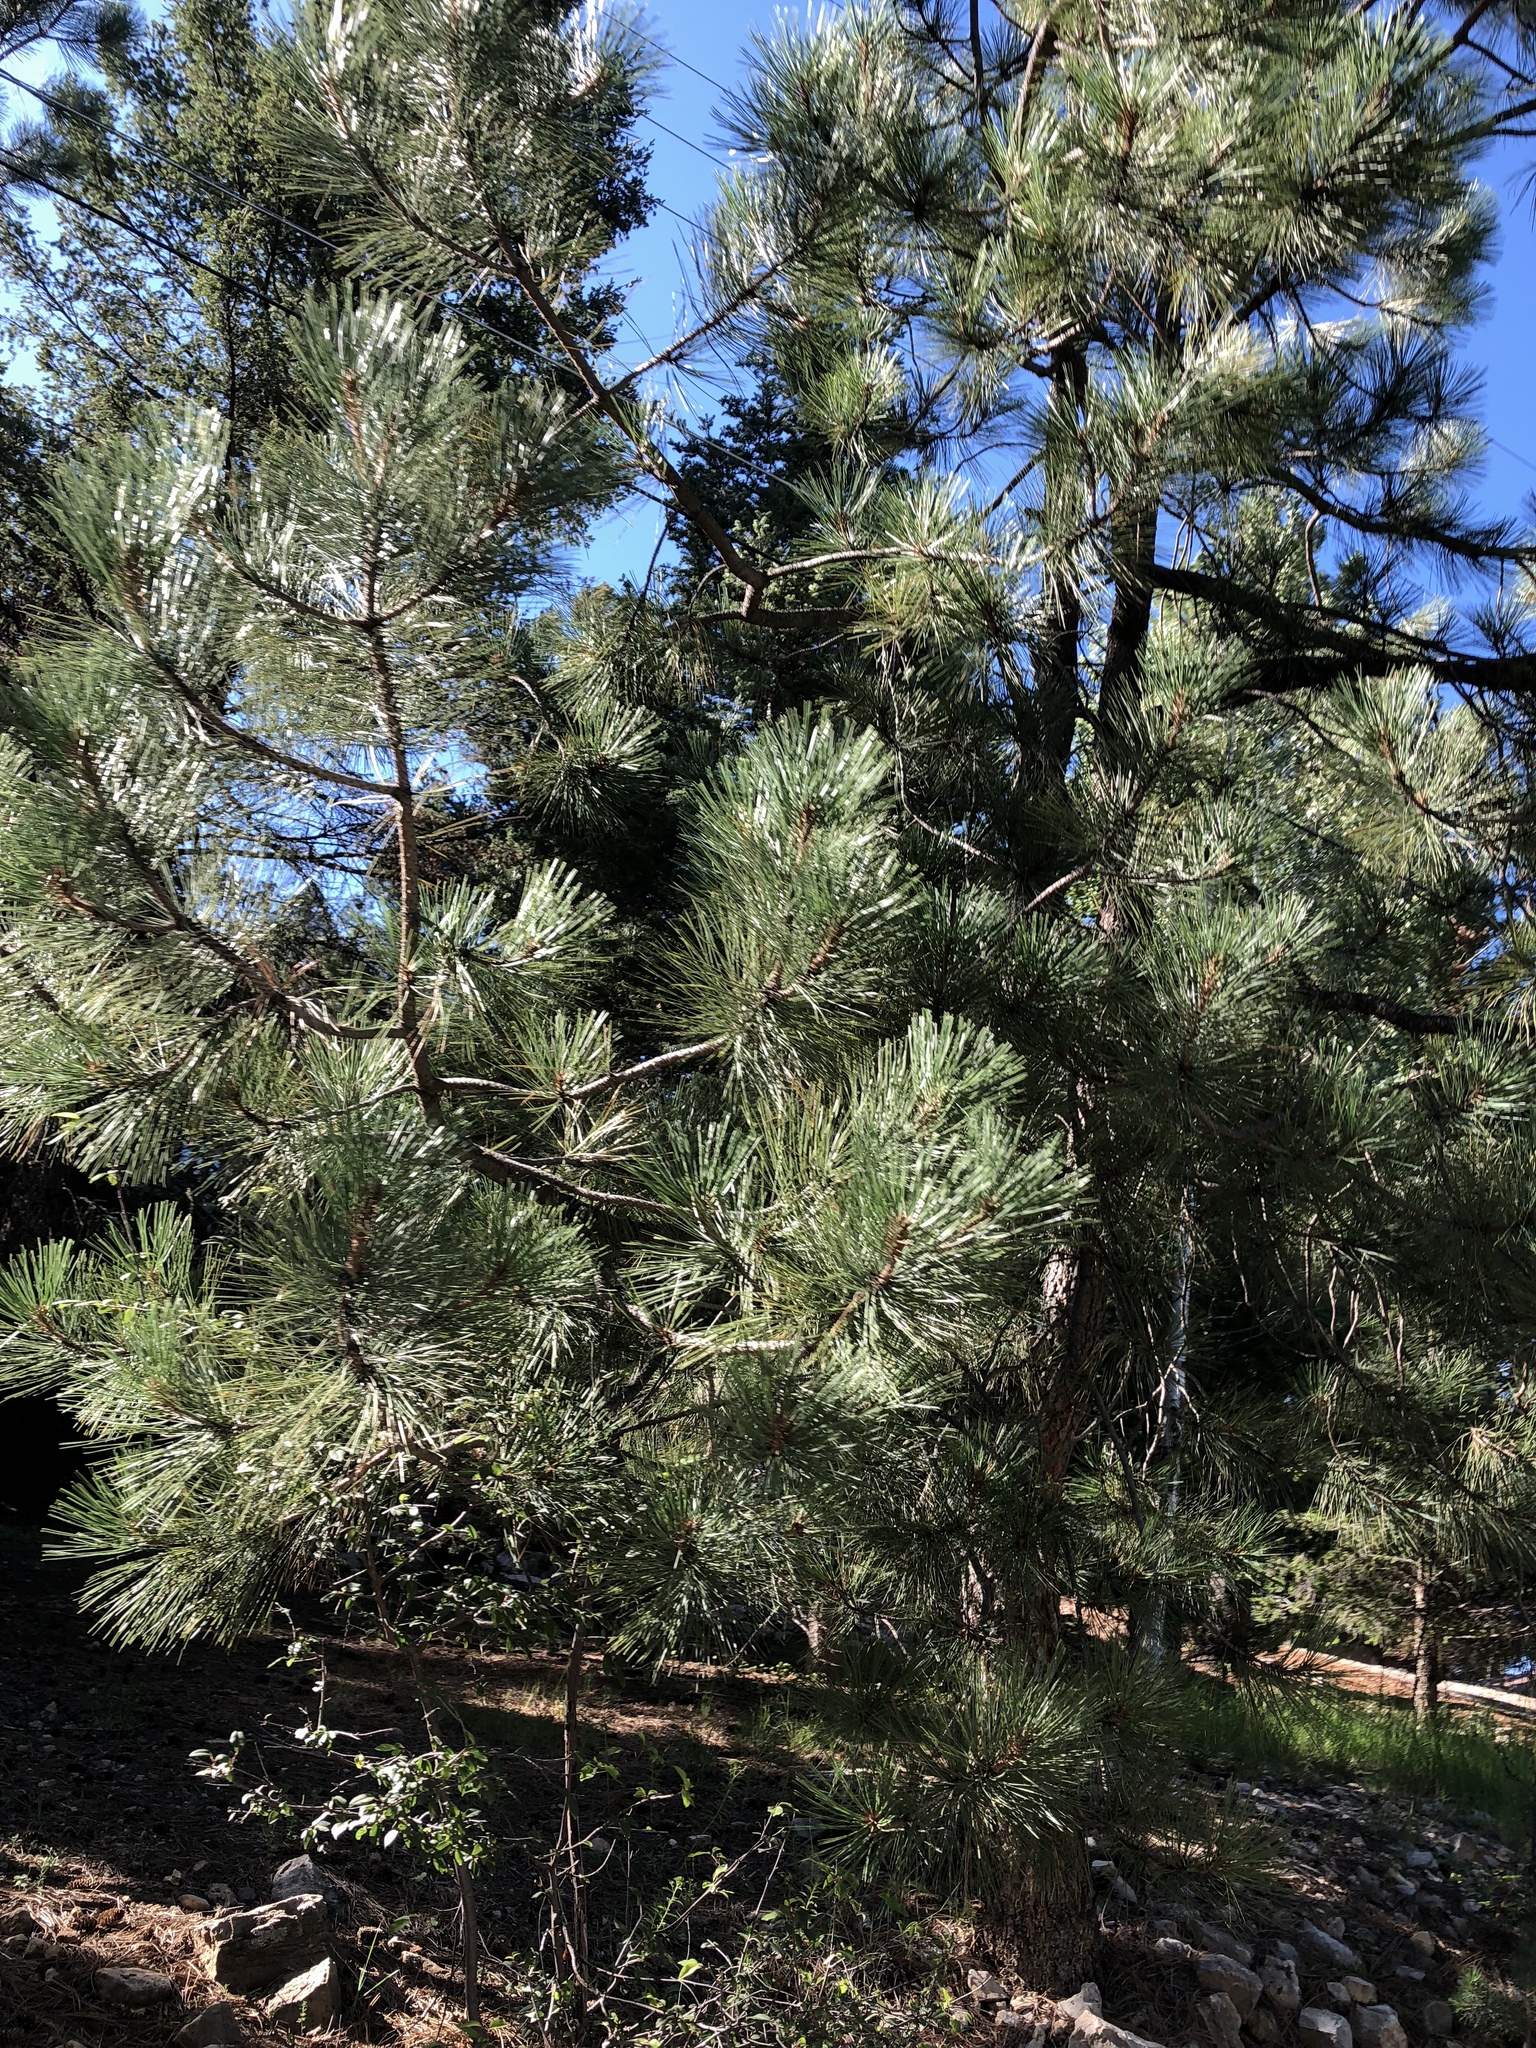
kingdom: Plantae
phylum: Tracheophyta
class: Pinopsida
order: Pinales
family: Pinaceae
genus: Pinus
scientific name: Pinus ponderosa
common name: Western yellow-pine
